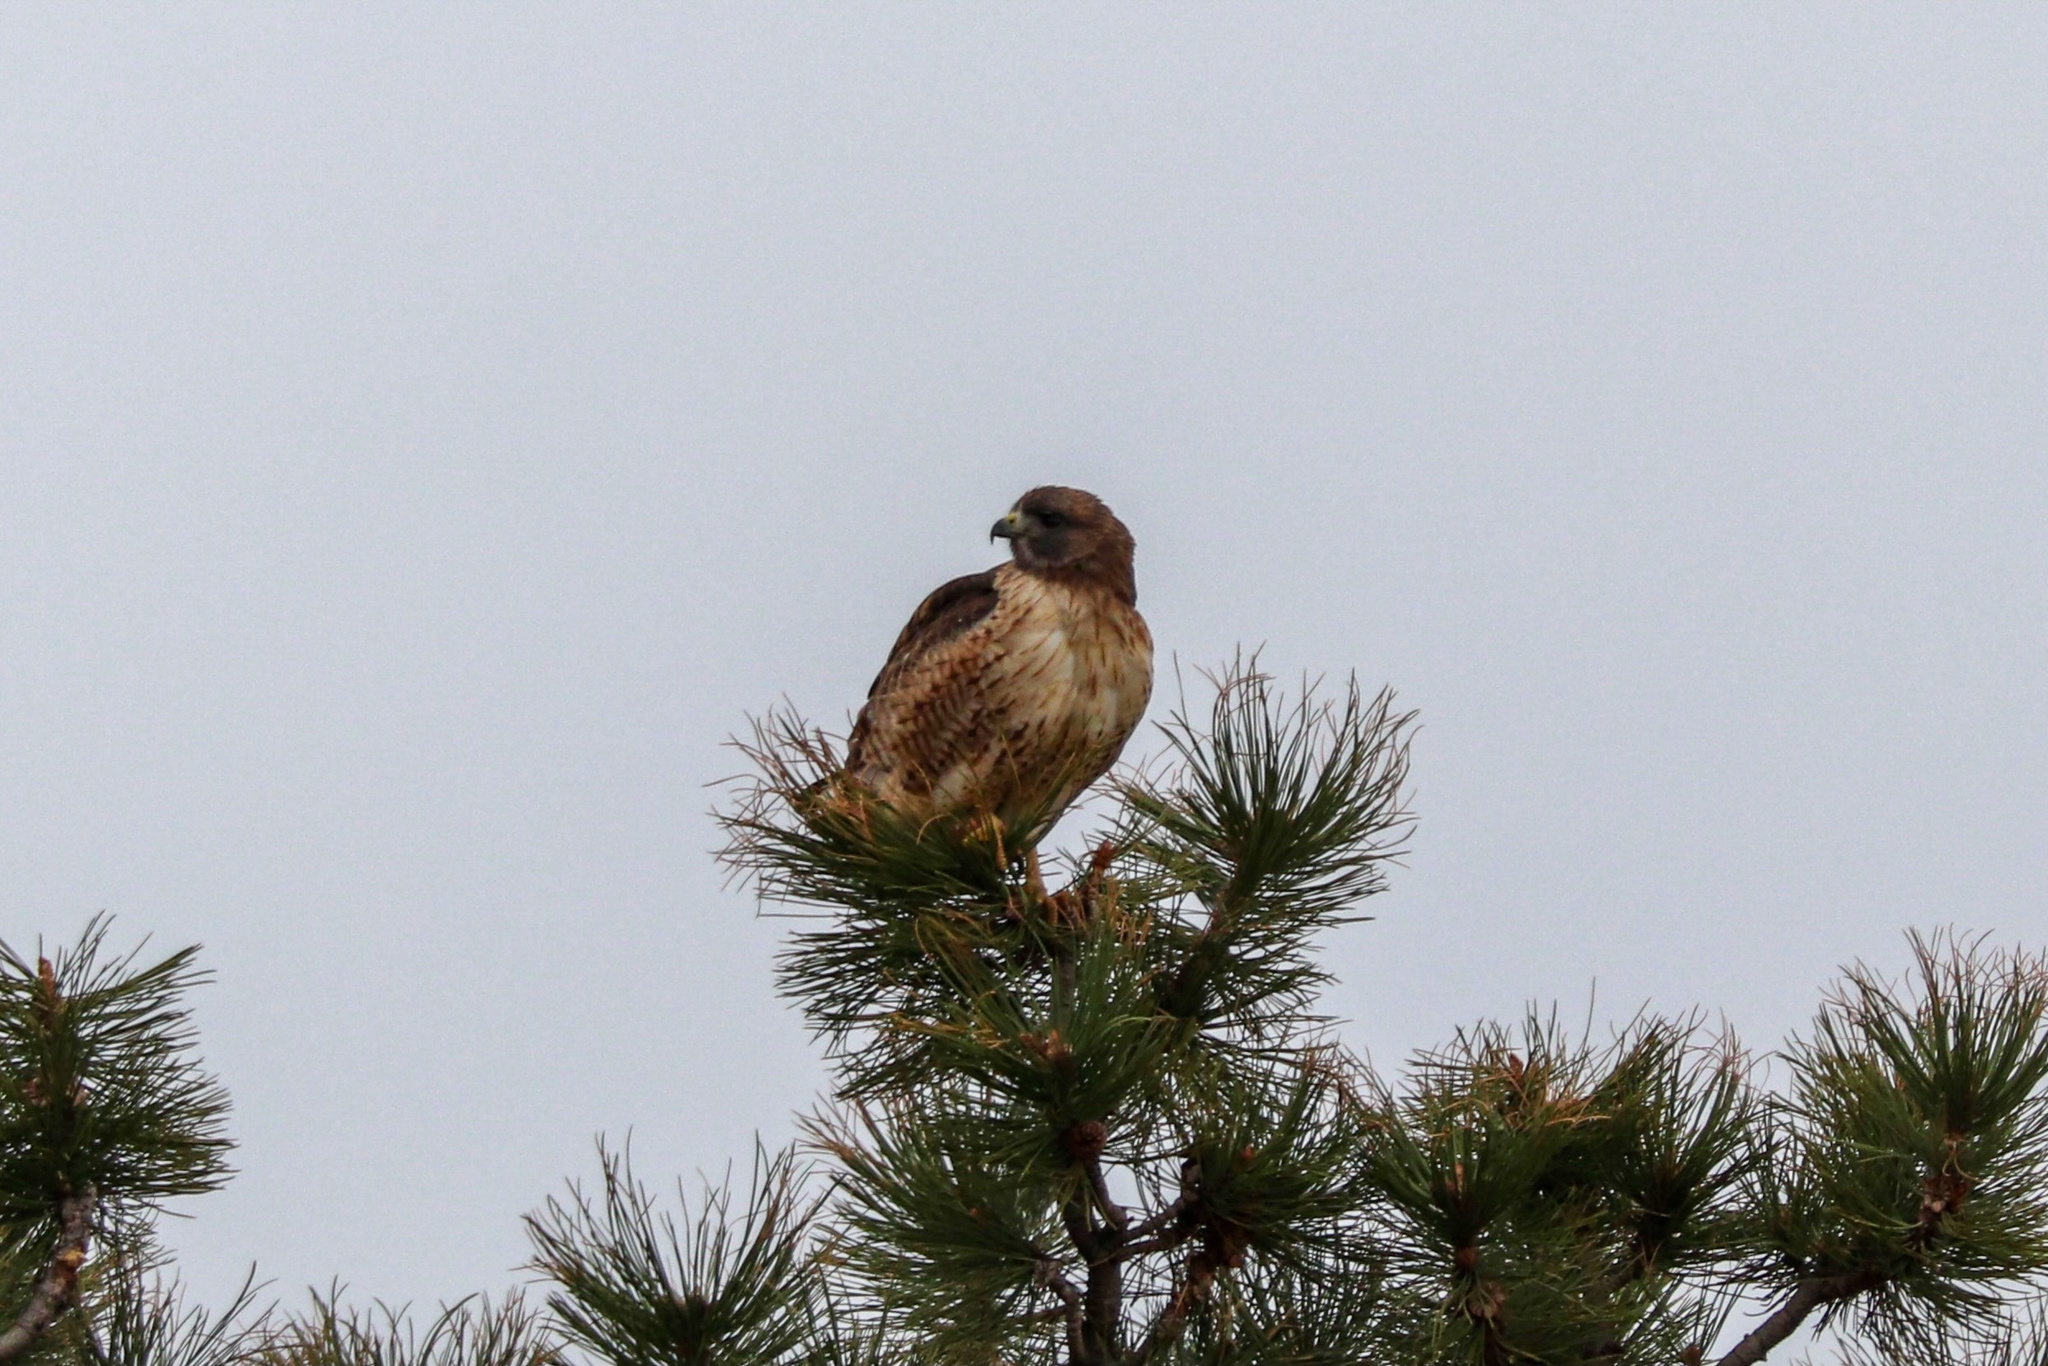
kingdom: Animalia
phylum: Chordata
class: Aves
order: Accipitriformes
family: Accipitridae
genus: Buteo
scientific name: Buteo jamaicensis
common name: Red-tailed hawk
